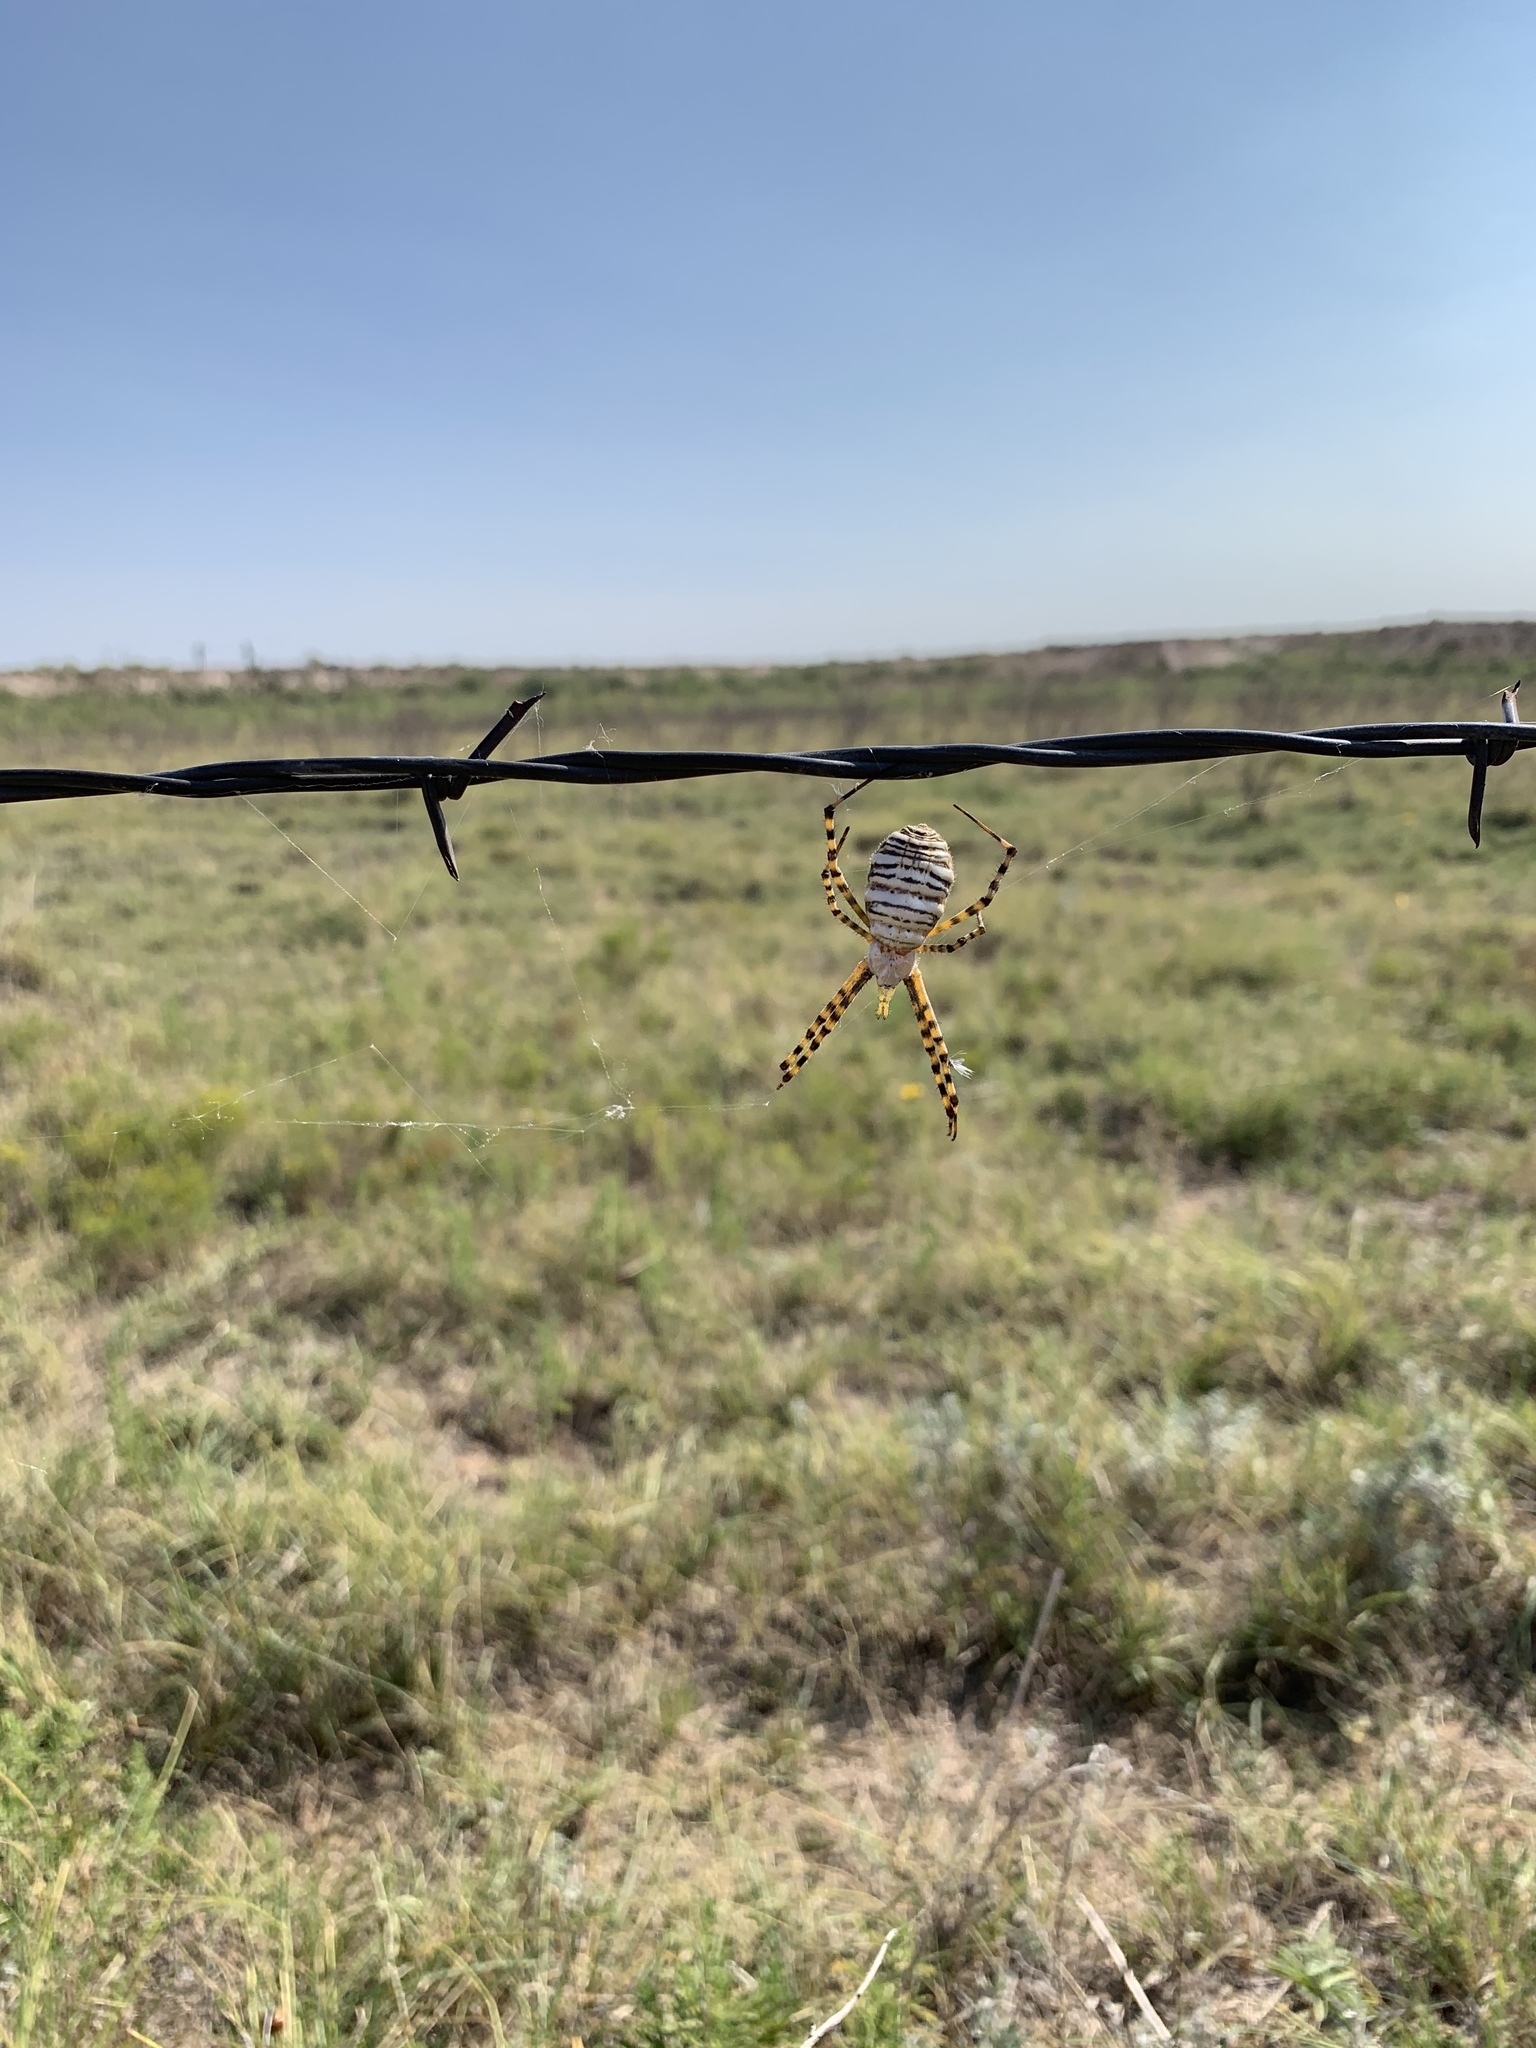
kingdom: Animalia
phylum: Arthropoda
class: Arachnida
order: Araneae
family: Araneidae
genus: Argiope
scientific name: Argiope trifasciata
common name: Banded garden spider
